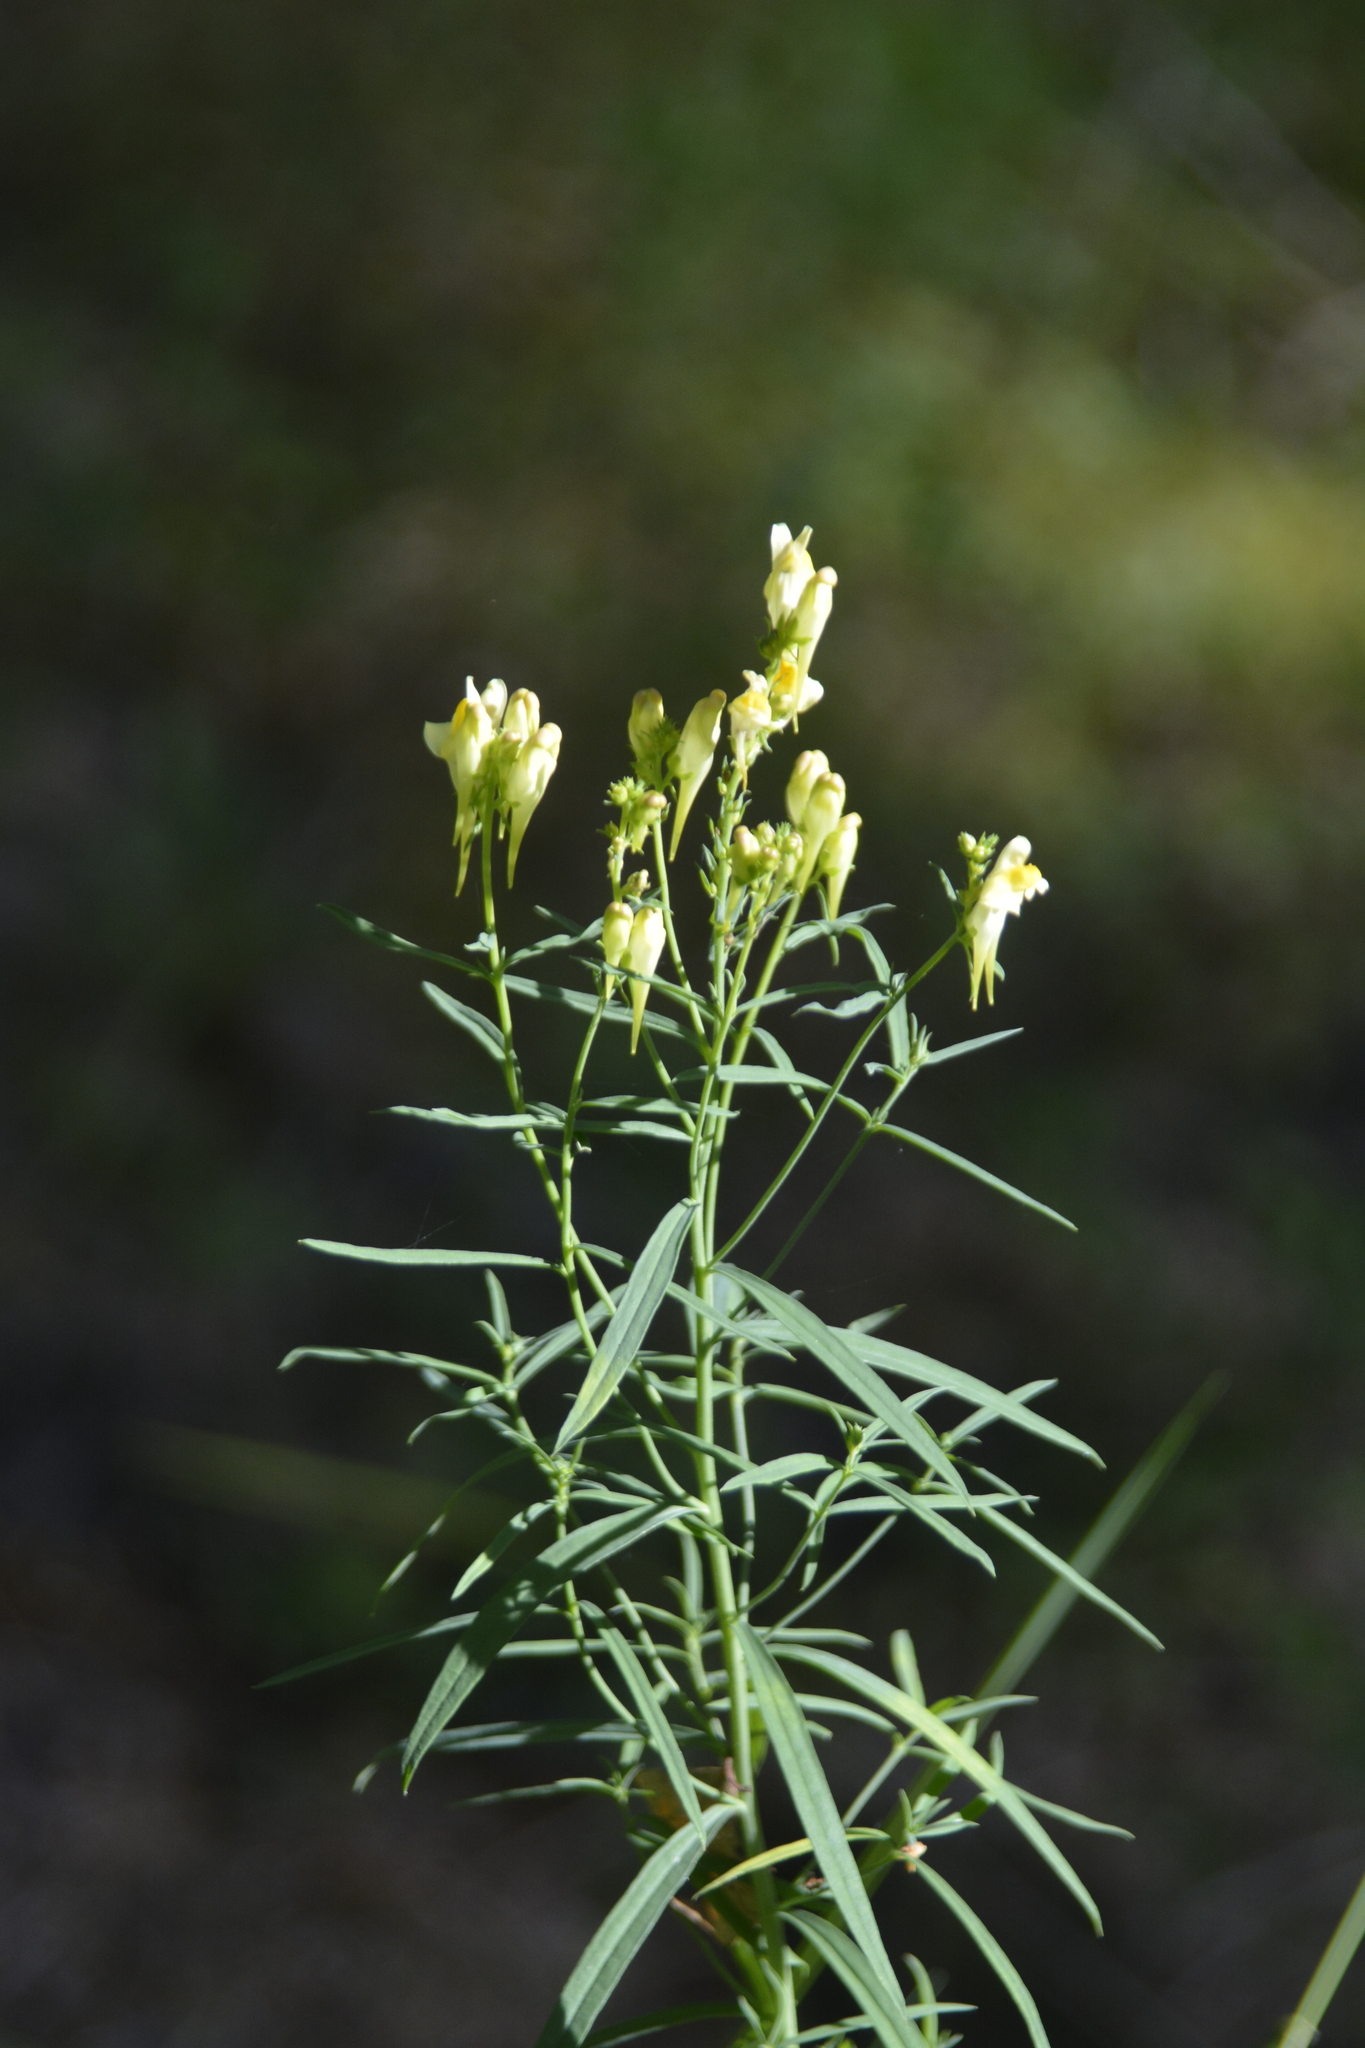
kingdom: Plantae
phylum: Tracheophyta
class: Magnoliopsida
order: Lamiales
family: Plantaginaceae
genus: Linaria
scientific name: Linaria vulgaris
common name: Butter and eggs
